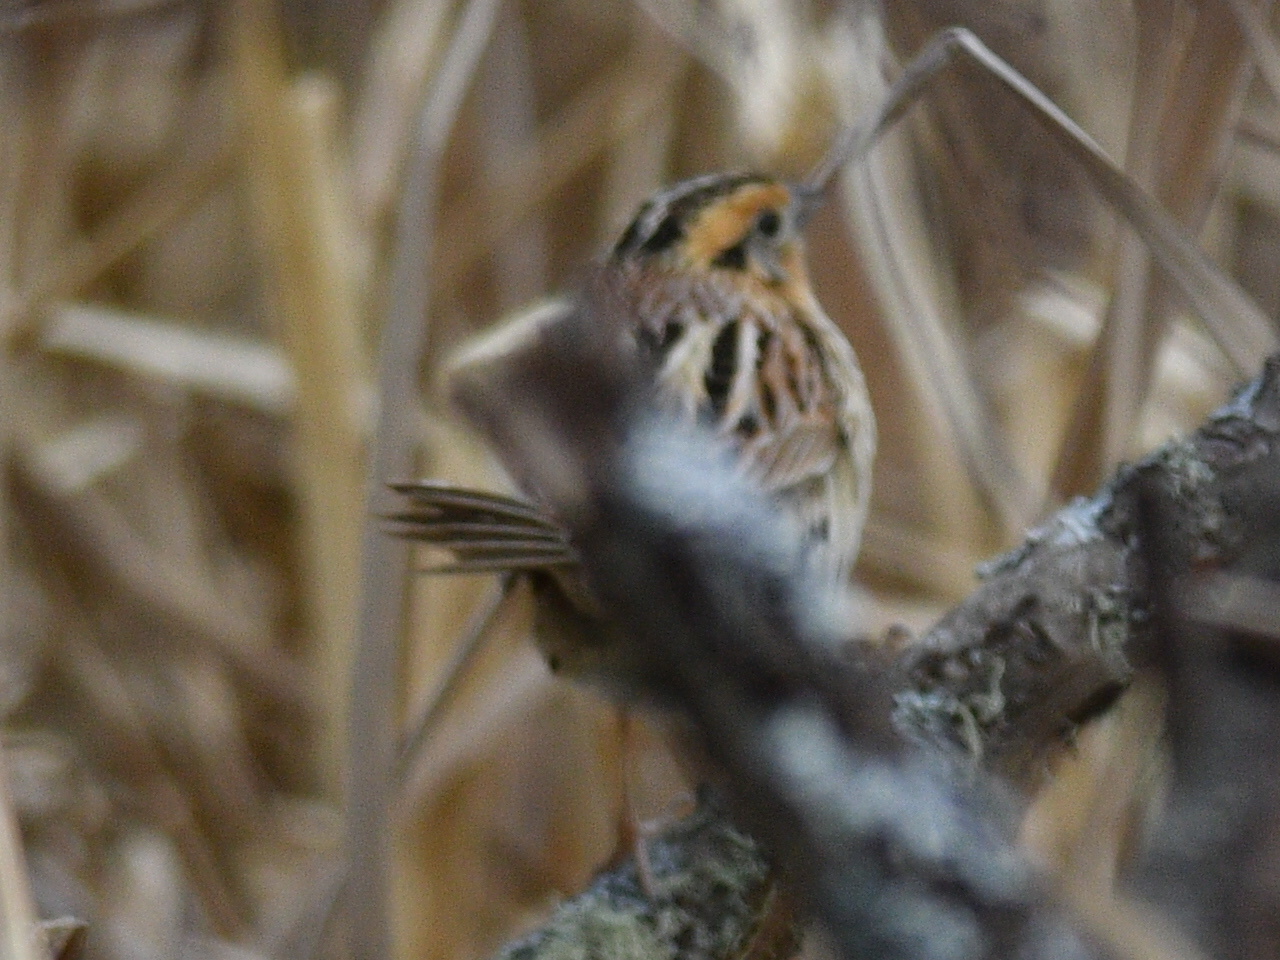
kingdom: Animalia
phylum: Chordata
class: Aves
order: Passeriformes
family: Passerellidae
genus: Ammospiza
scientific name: Ammospiza leconteii
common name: Le conte's sparrow
